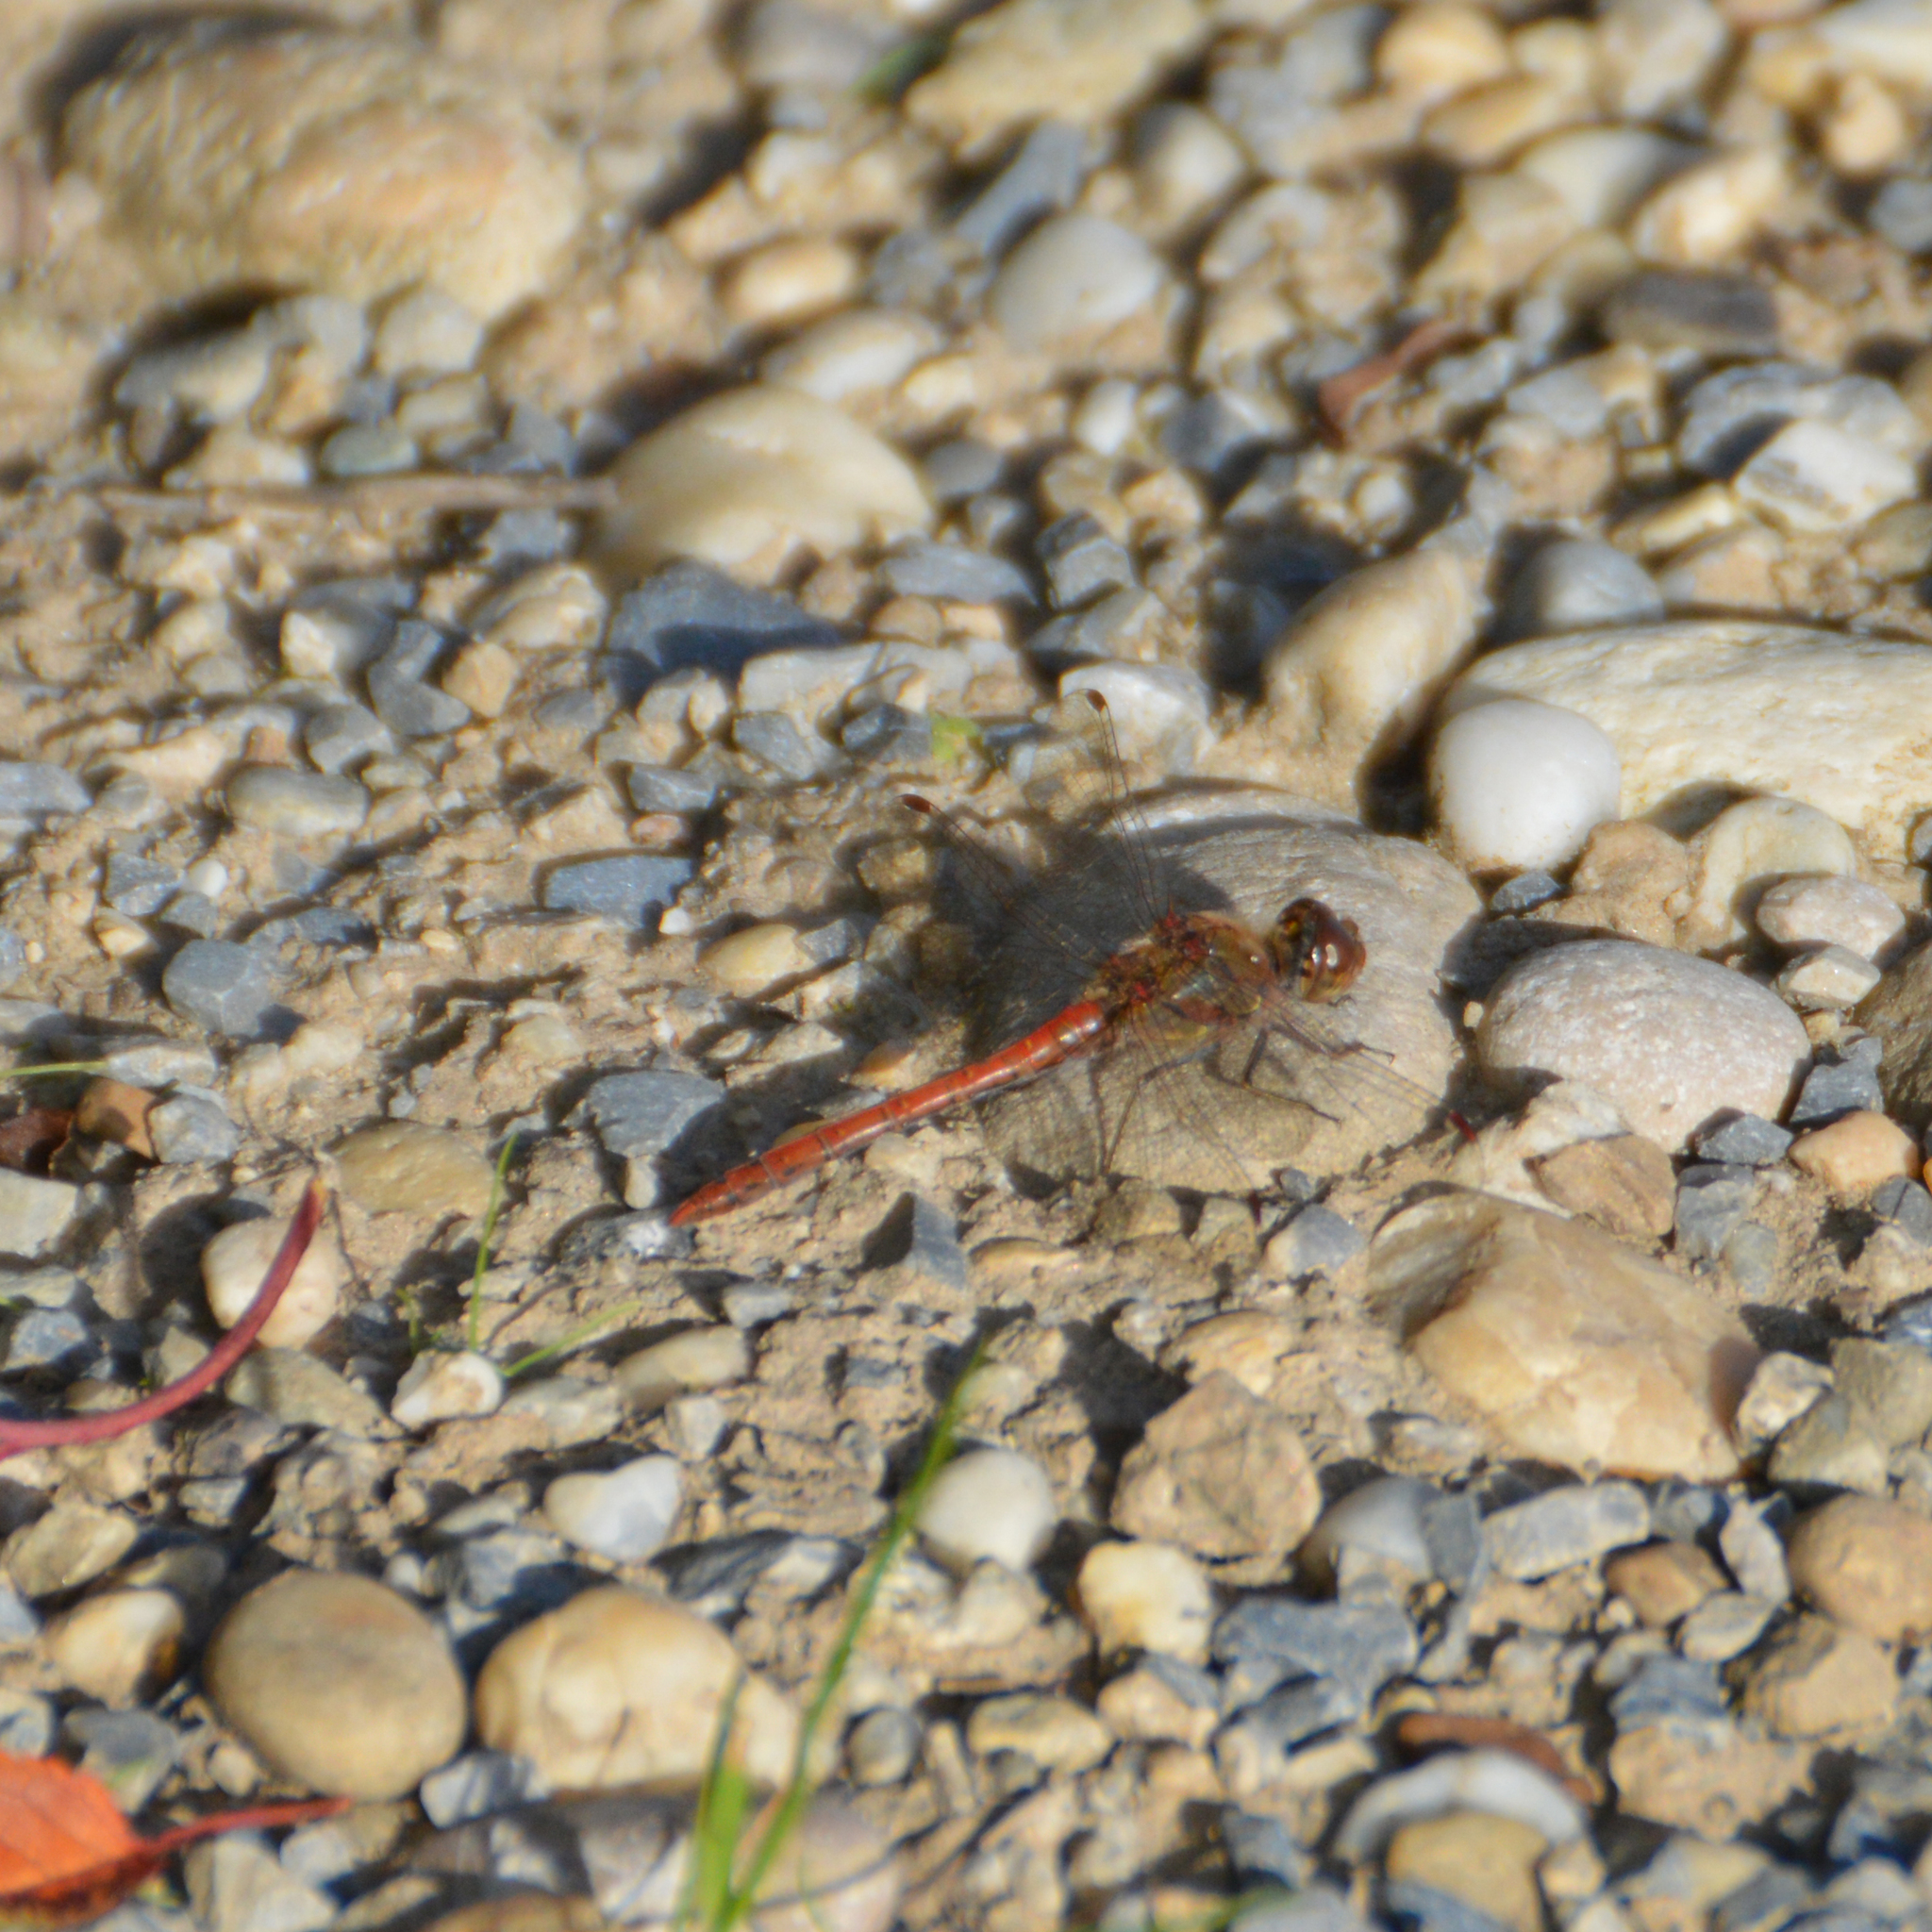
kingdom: Animalia
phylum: Arthropoda
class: Insecta
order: Odonata
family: Libellulidae
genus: Sympetrum
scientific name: Sympetrum striolatum
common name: Common darter
